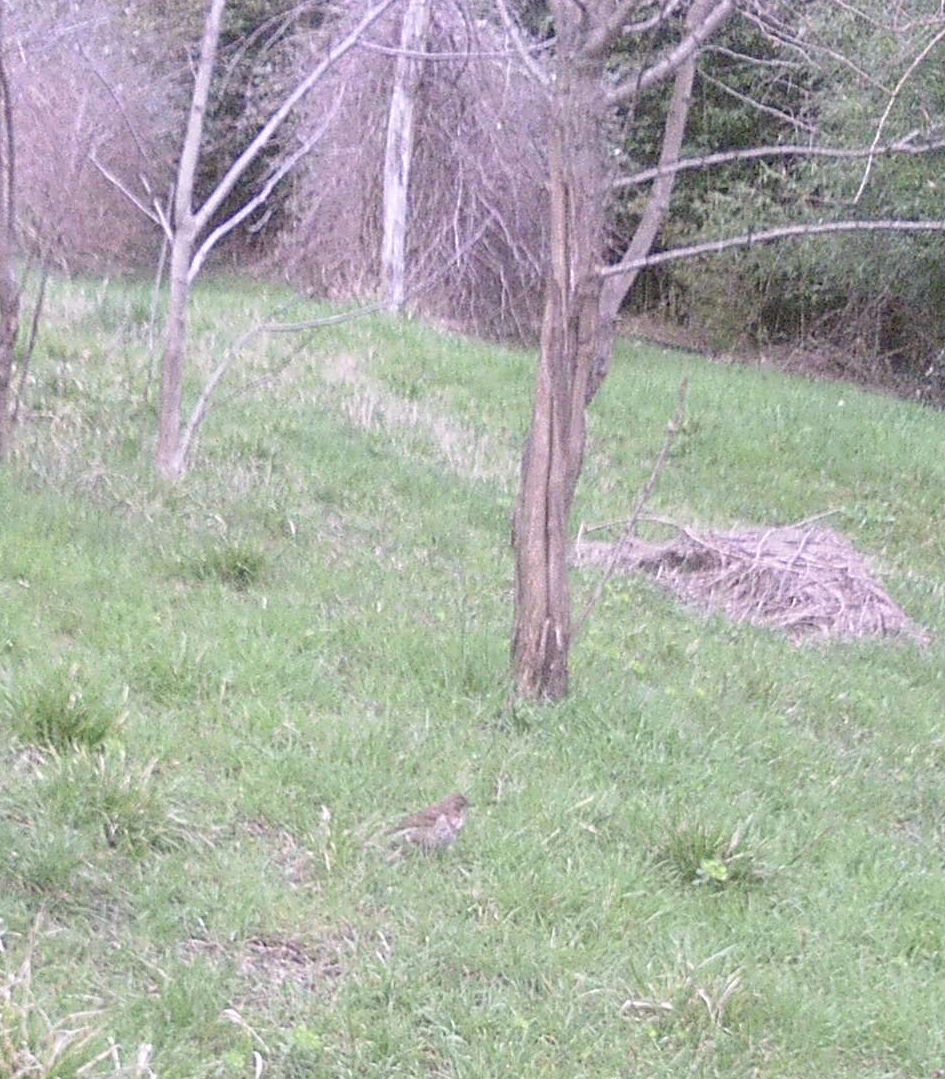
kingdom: Animalia
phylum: Chordata
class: Aves
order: Passeriformes
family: Turdidae
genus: Turdus
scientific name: Turdus philomelos
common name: Song thrush
